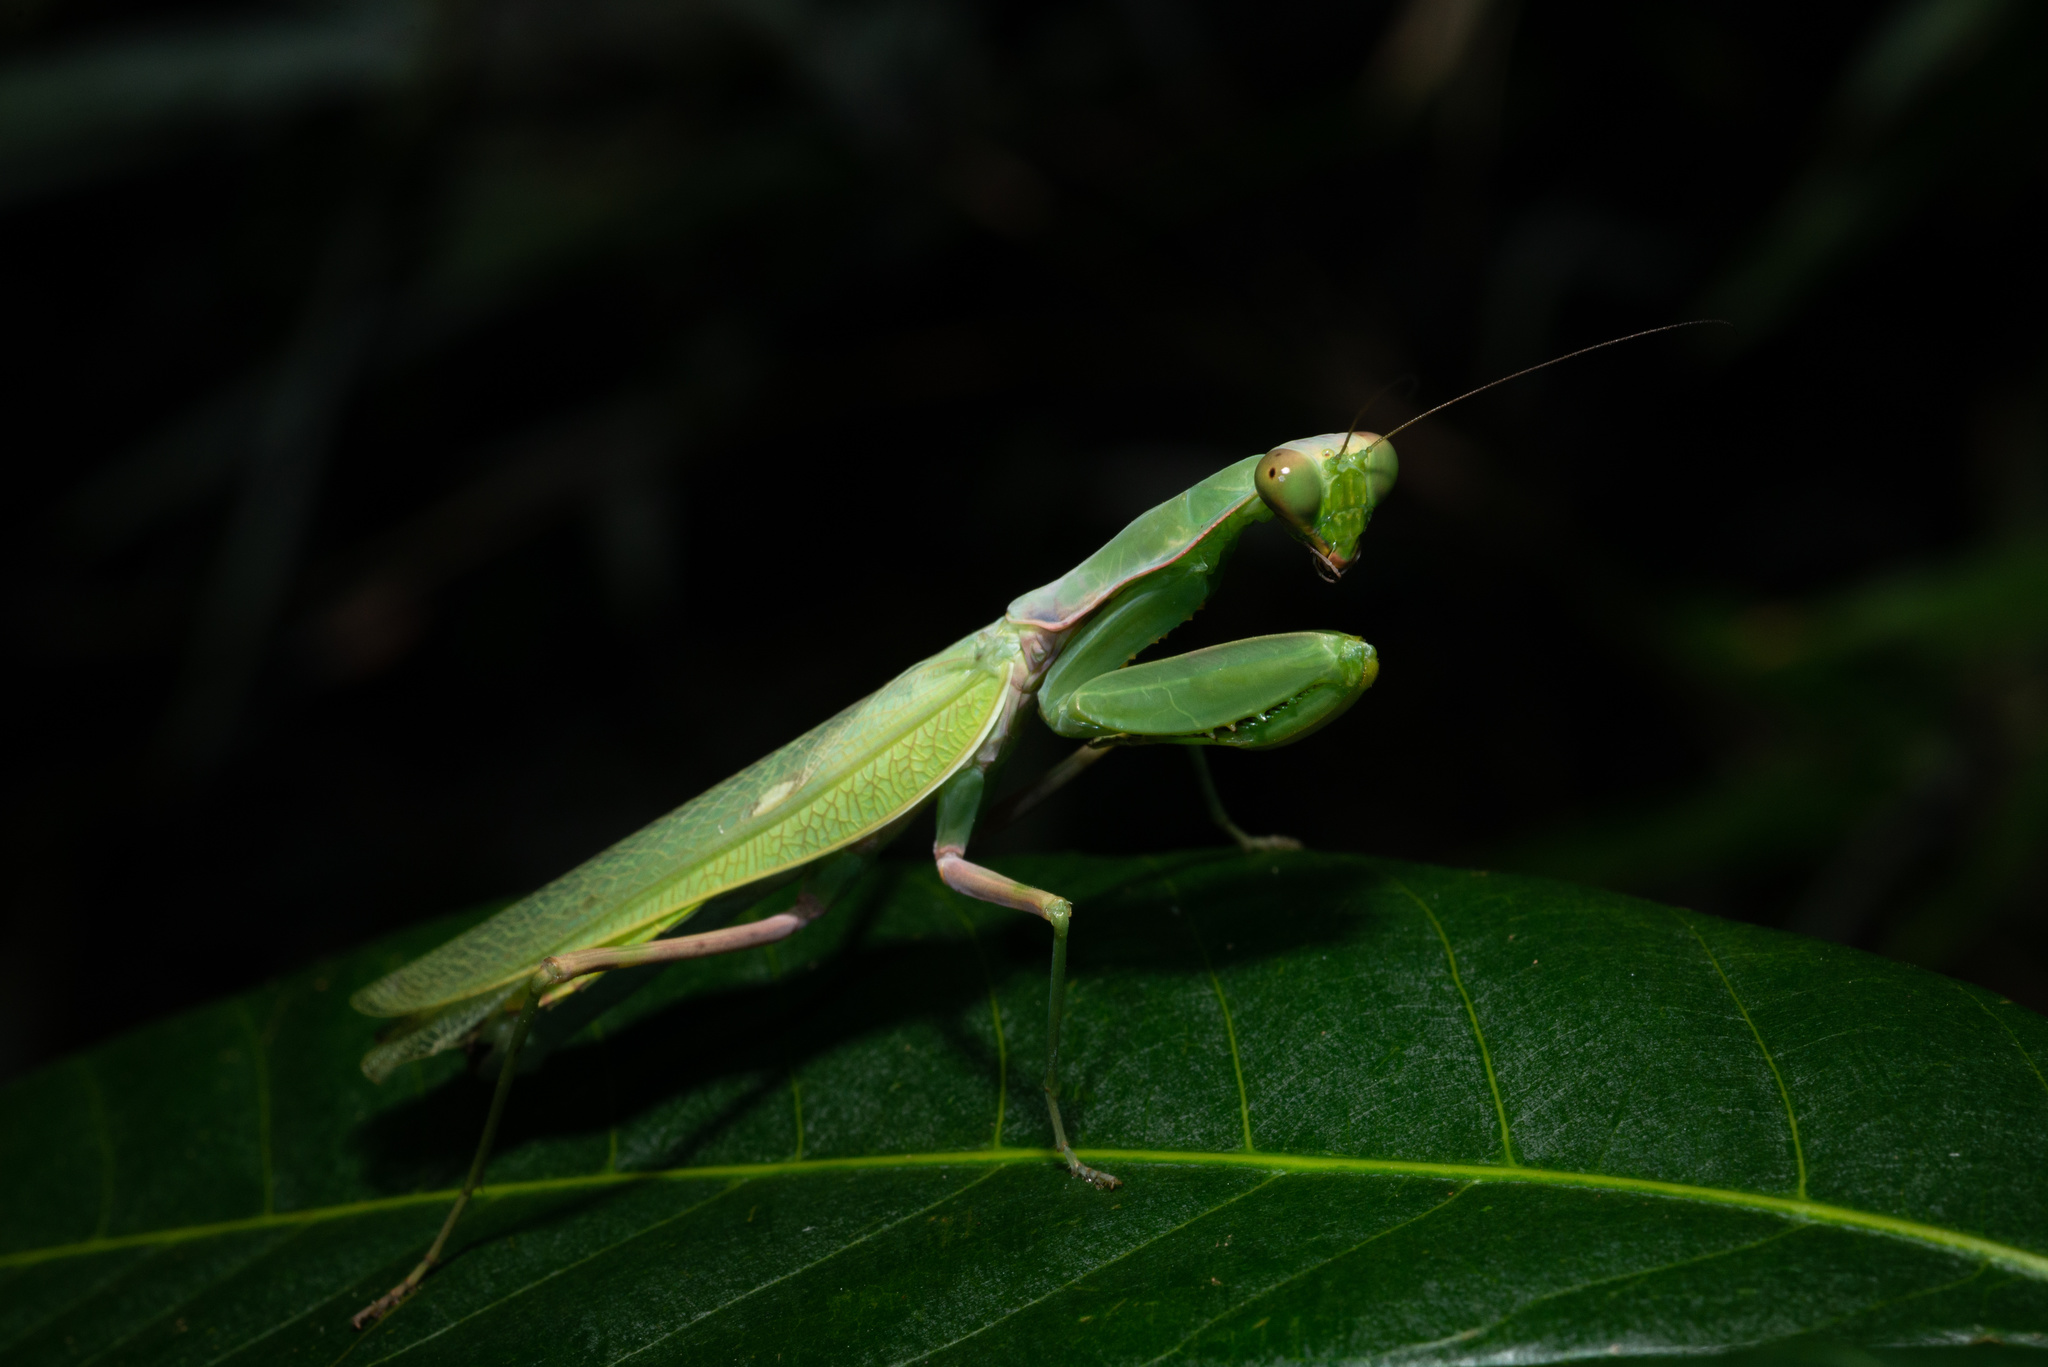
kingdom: Animalia
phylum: Arthropoda
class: Insecta
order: Mantodea
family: Mantidae
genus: Hierodula
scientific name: Hierodula patellifera
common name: Asian mantis
